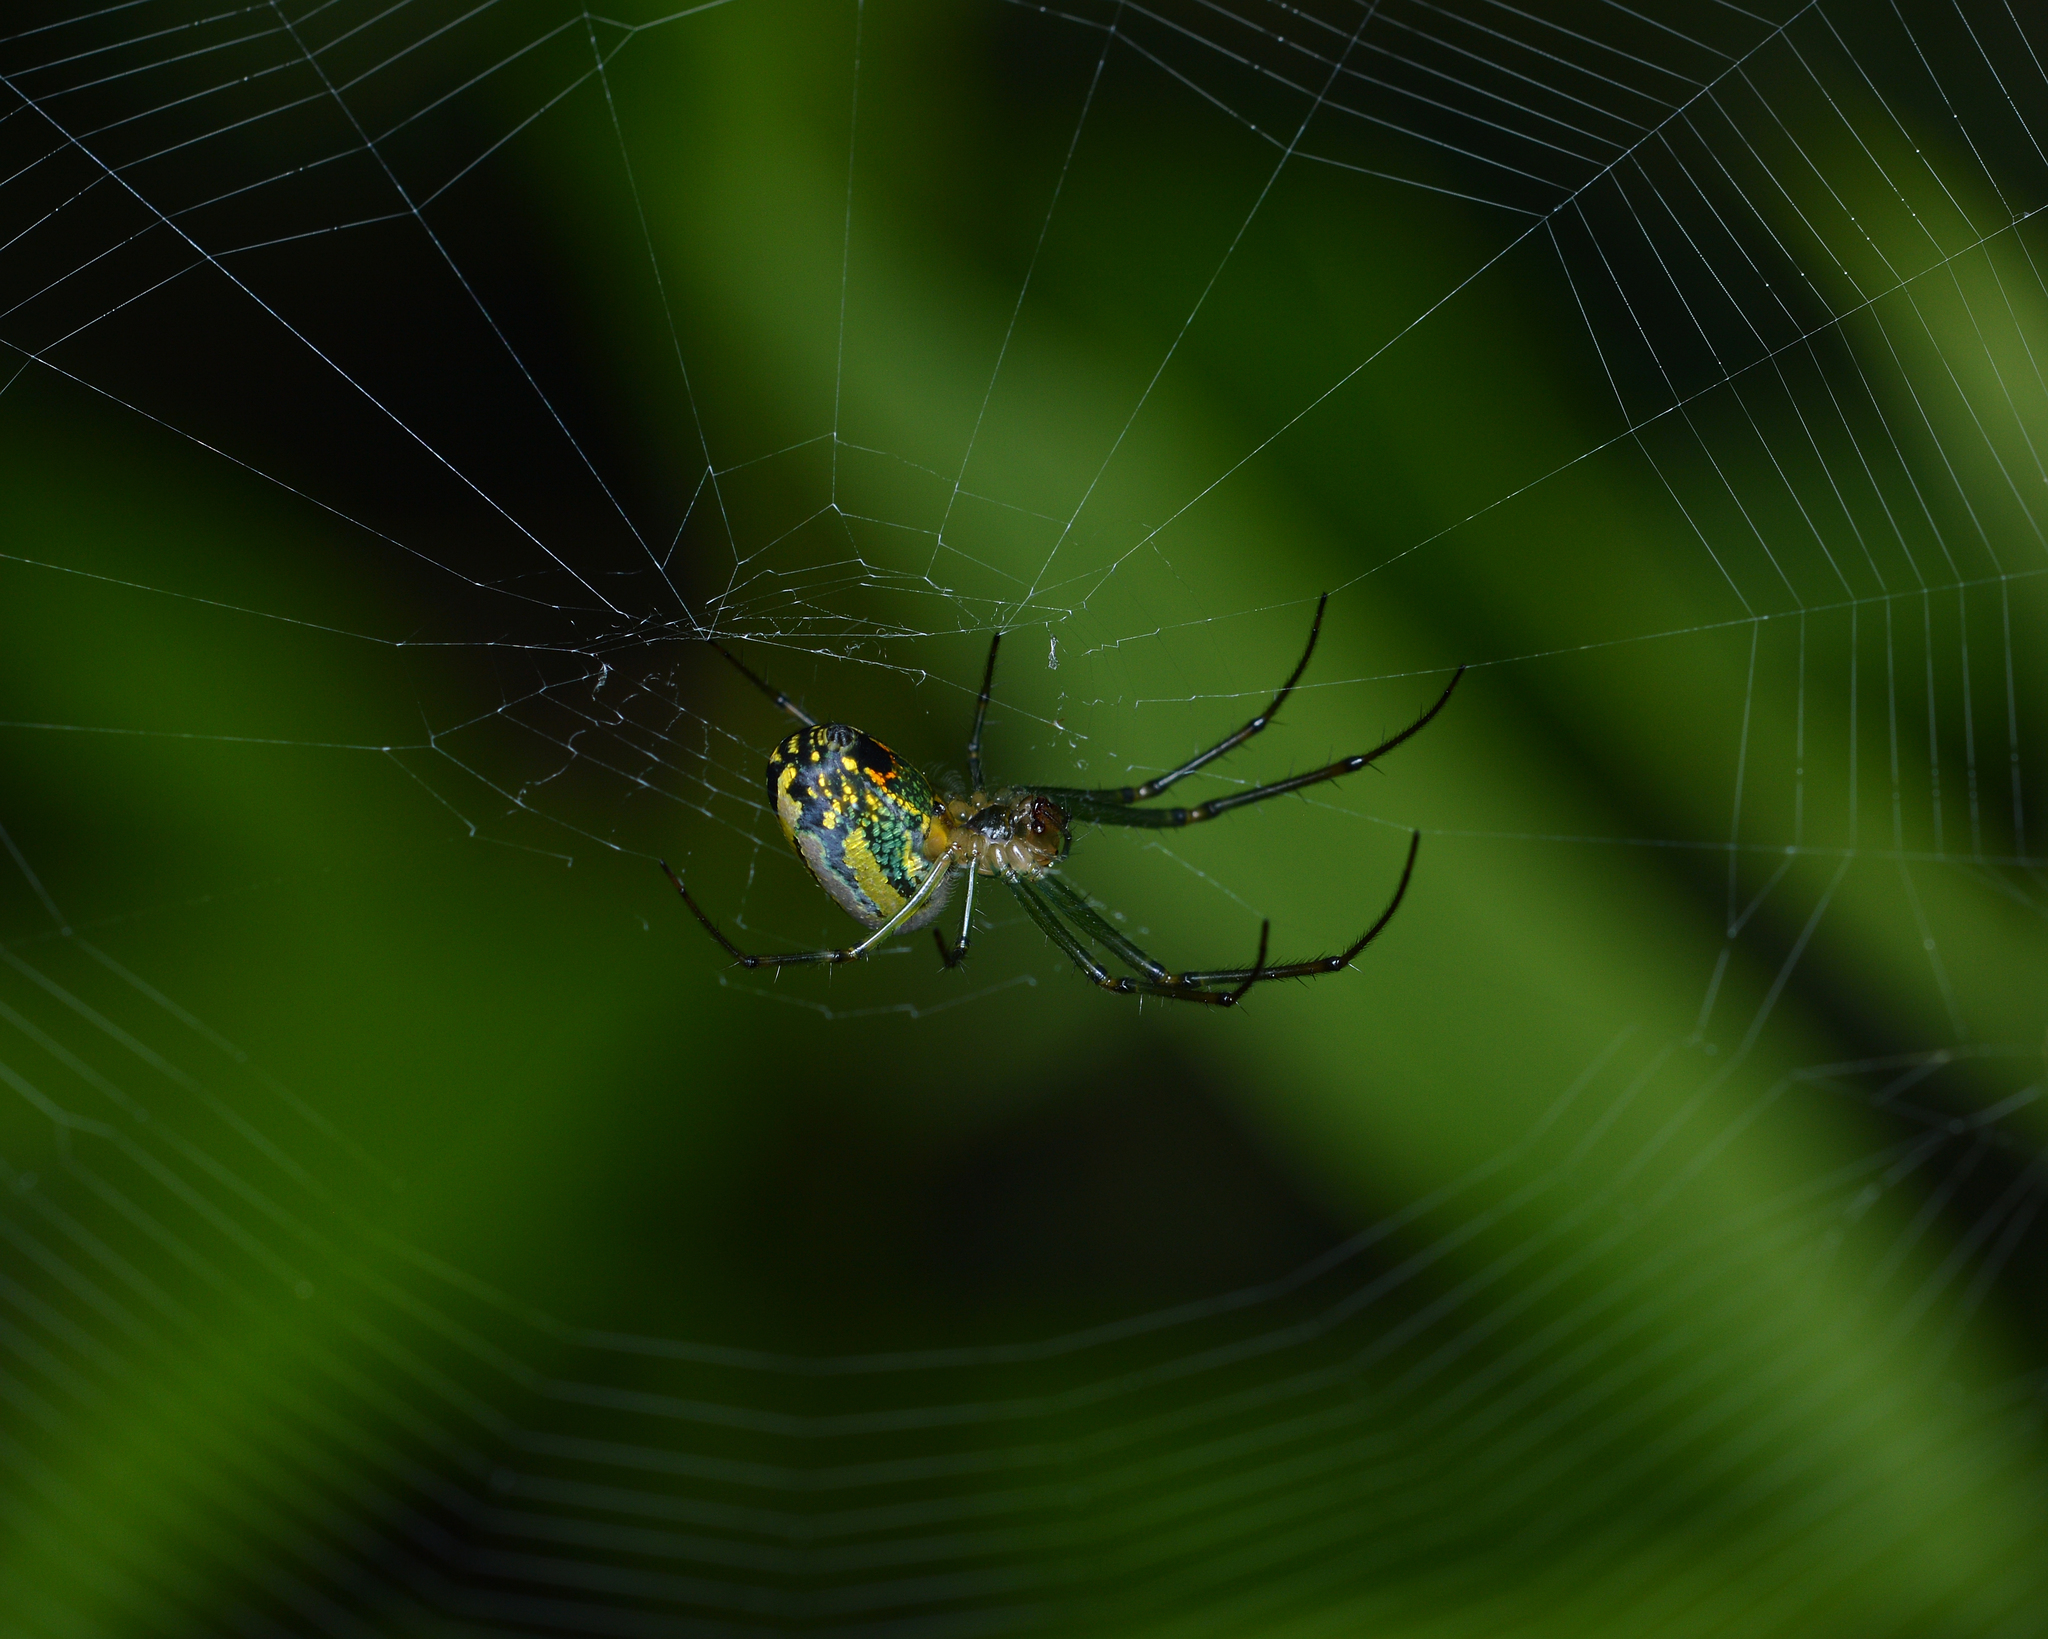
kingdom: Animalia
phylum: Arthropoda
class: Arachnida
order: Araneae
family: Tetragnathidae
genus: Leucauge
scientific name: Leucauge venusta
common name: Longjawed orb weavers
